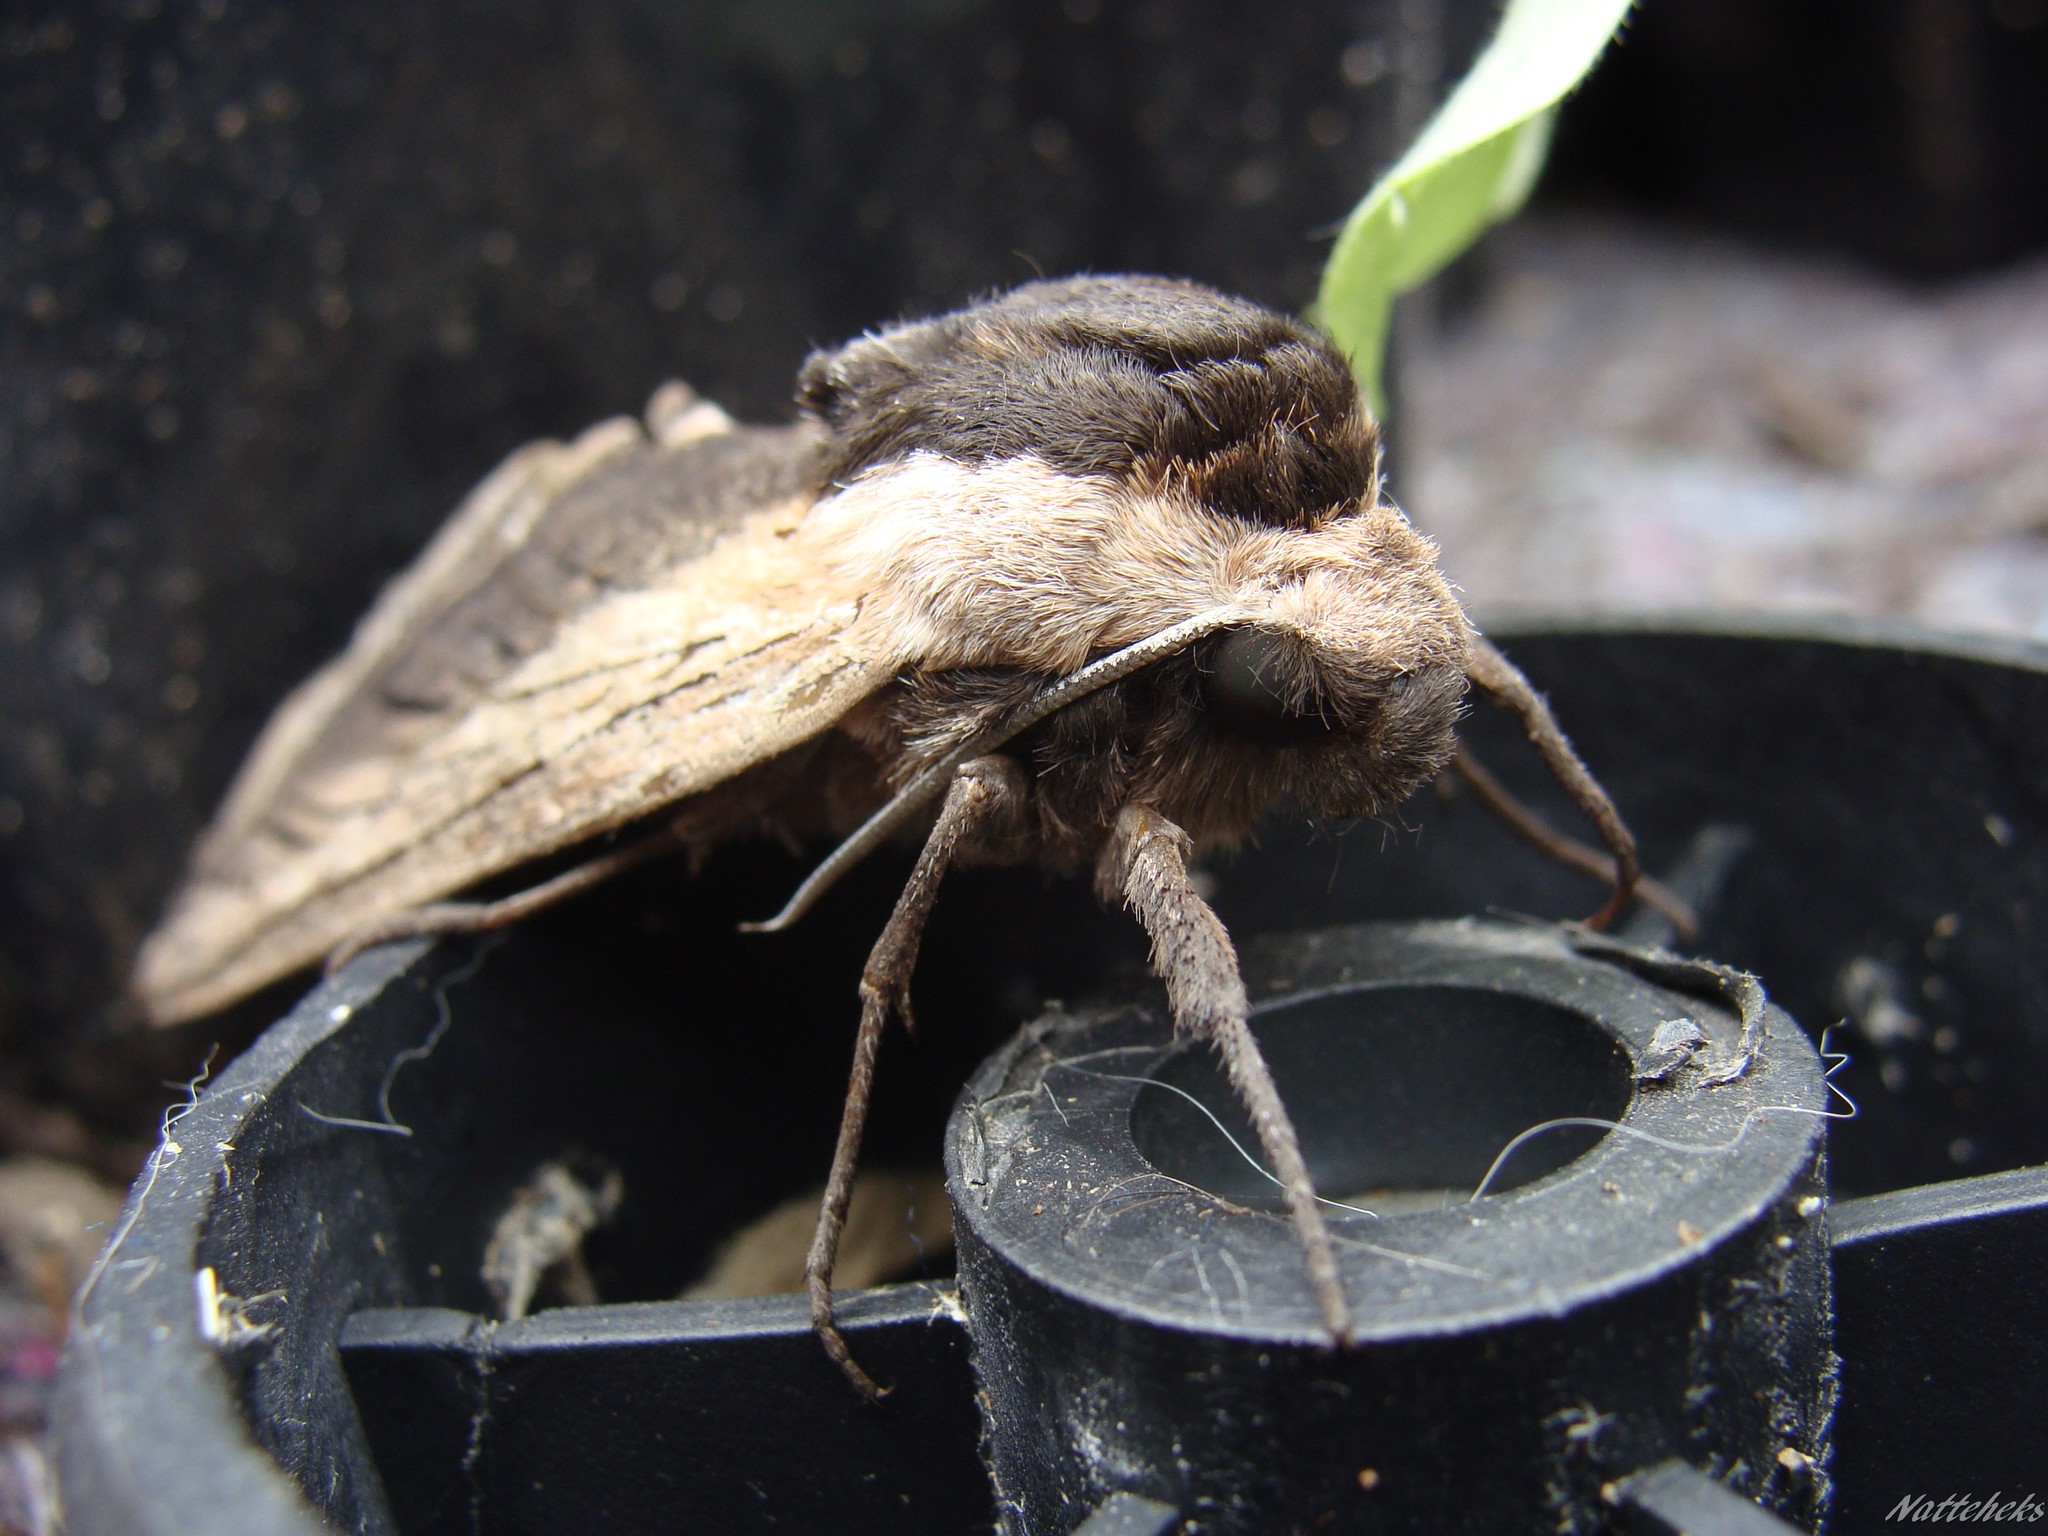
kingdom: Animalia
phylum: Arthropoda
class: Insecta
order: Lepidoptera
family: Sphingidae
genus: Sphinx
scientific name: Sphinx ligustri
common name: Privet hawk-moth
